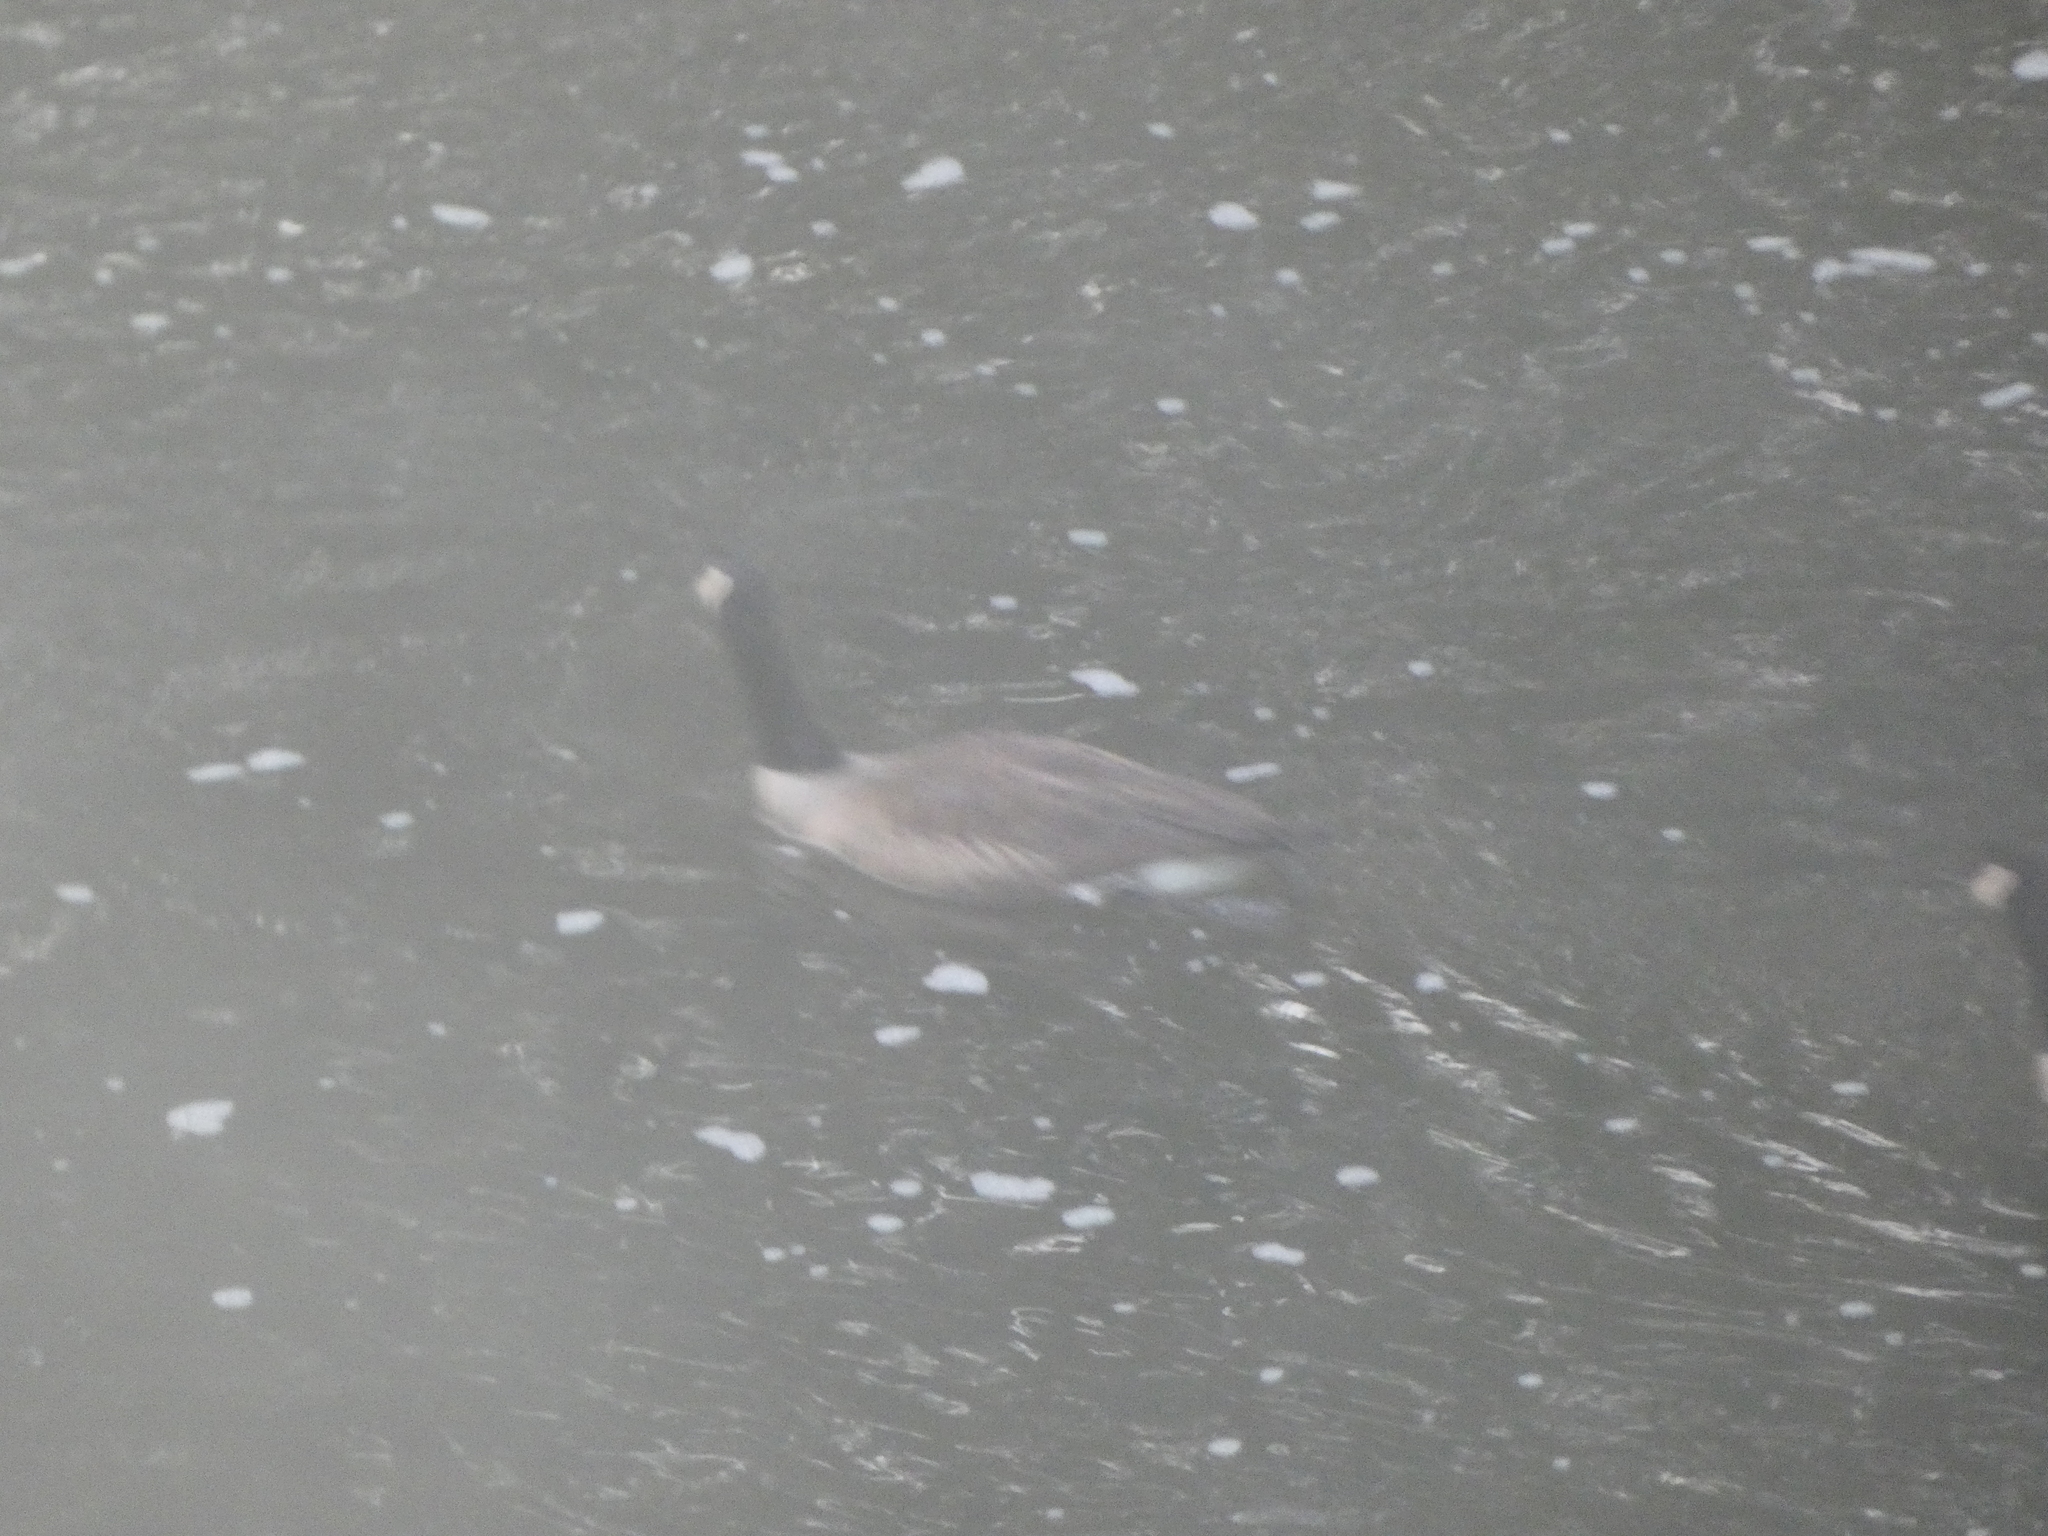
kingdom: Animalia
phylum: Chordata
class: Aves
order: Anseriformes
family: Anatidae
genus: Branta
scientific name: Branta canadensis
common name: Canada goose
